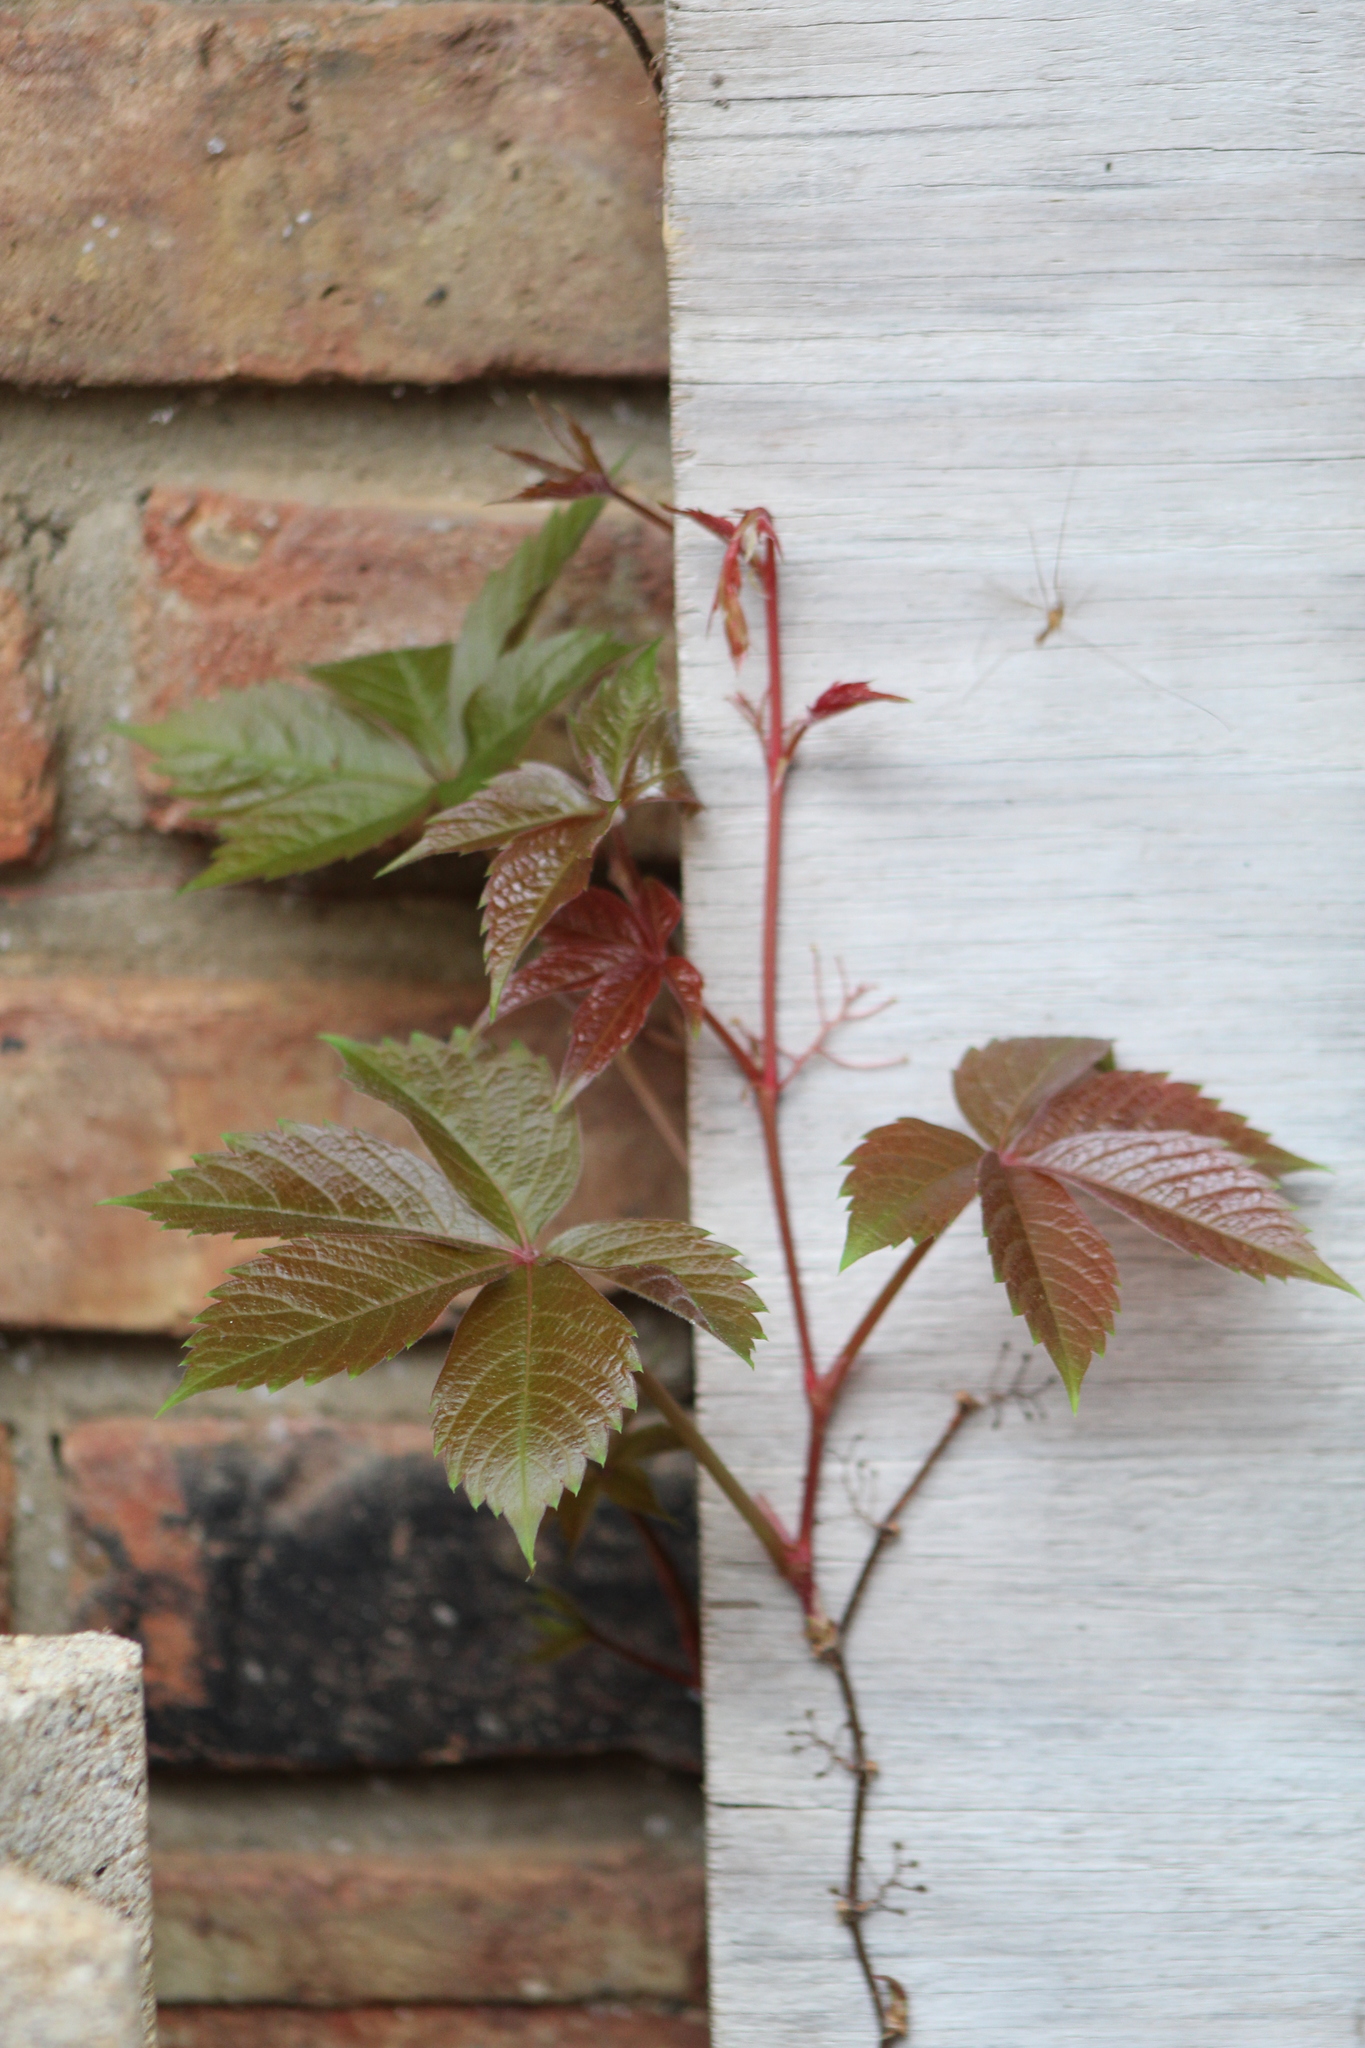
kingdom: Plantae
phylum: Tracheophyta
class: Magnoliopsida
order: Vitales
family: Vitaceae
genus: Parthenocissus
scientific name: Parthenocissus quinquefolia
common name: Virginia-creeper
